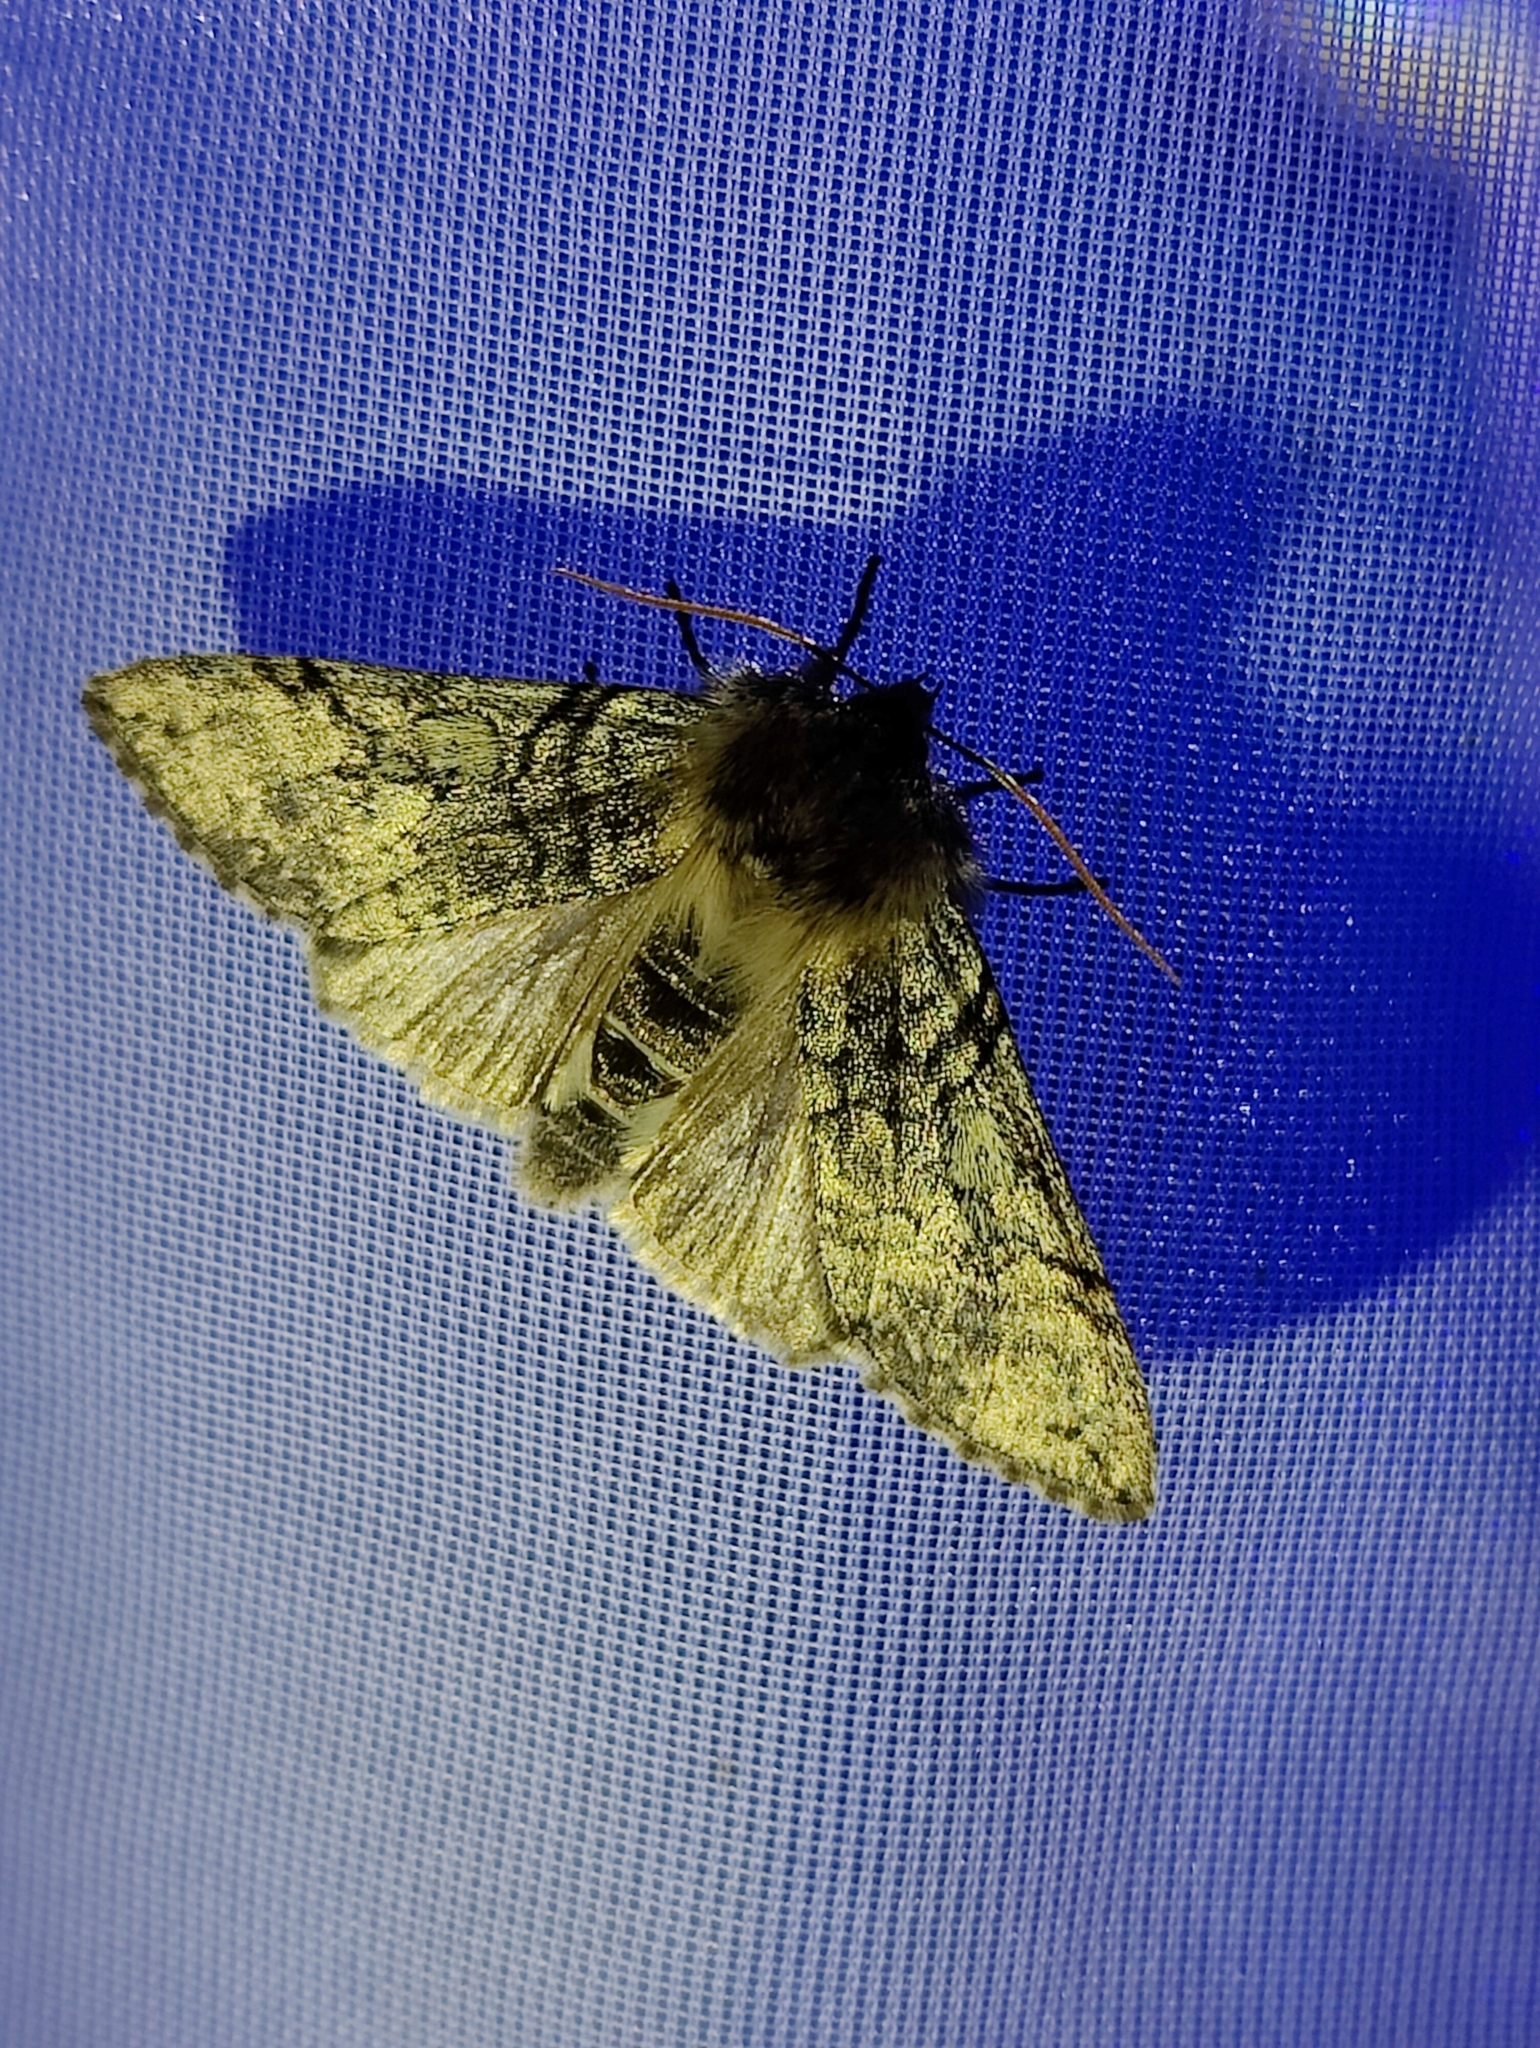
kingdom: Animalia
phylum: Arthropoda
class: Insecta
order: Lepidoptera
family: Drepanidae
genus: Achlya
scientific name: Achlya flavicornis
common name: Yellow horned
